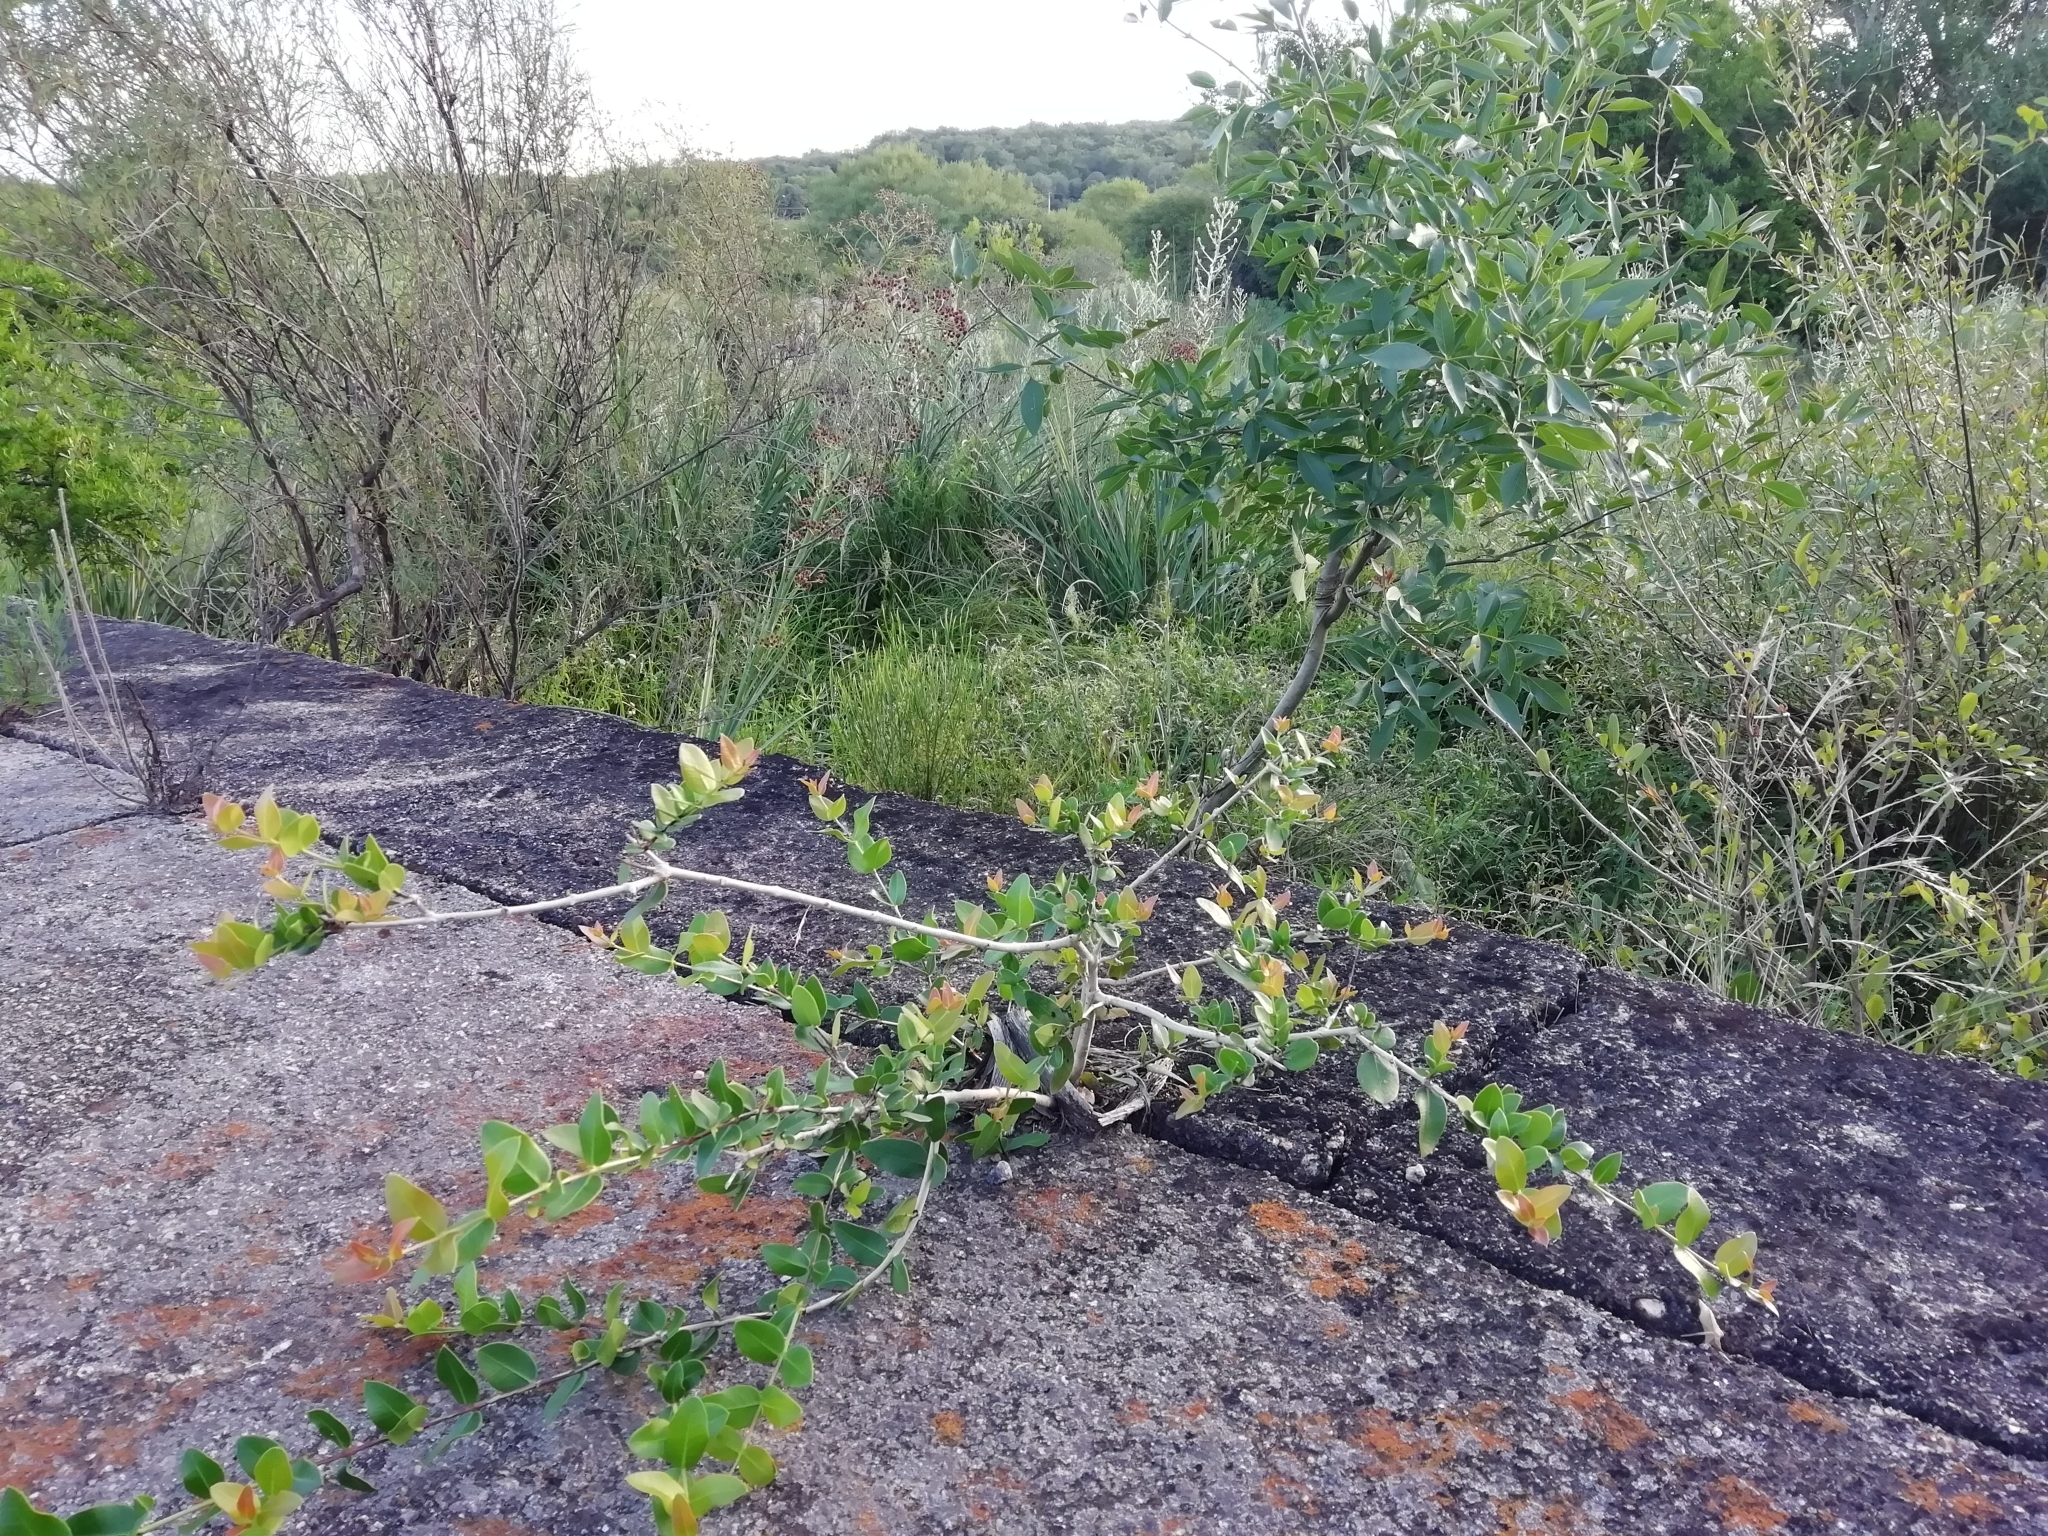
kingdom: Plantae
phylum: Tracheophyta
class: Magnoliopsida
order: Myrtales
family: Myrtaceae
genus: Myrcianthes
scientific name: Myrcianthes cisplatensis
